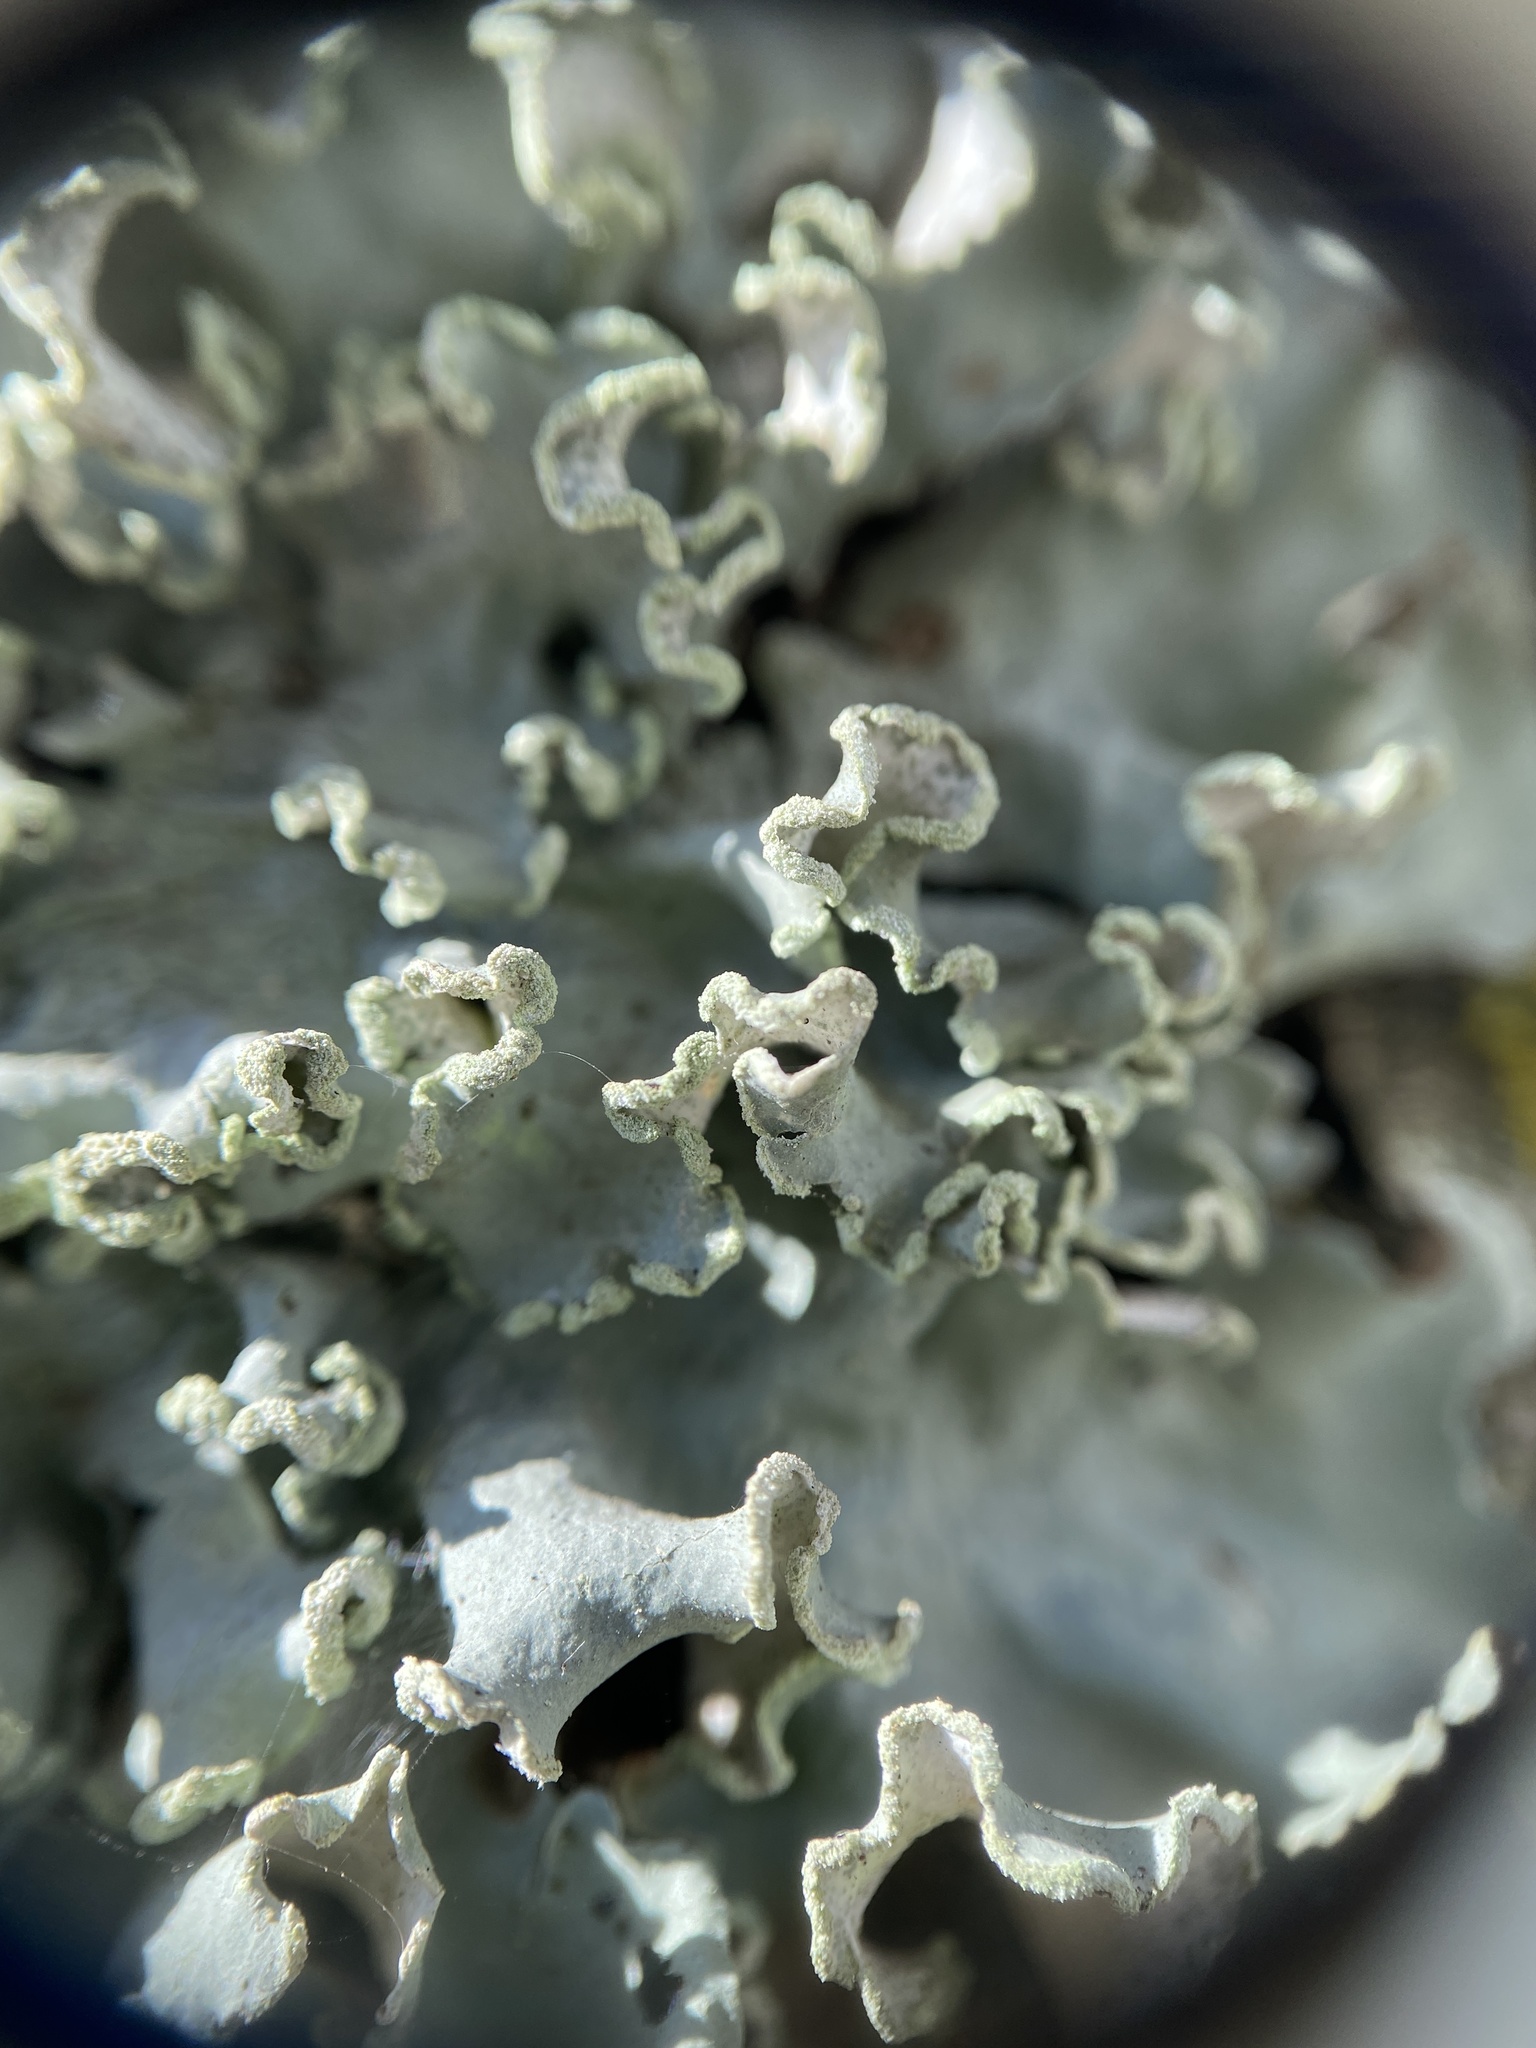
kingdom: Fungi
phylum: Ascomycota
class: Lecanoromycetes
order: Lecanorales
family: Parmeliaceae
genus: Parmotrema
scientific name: Parmotrema austrosinense
